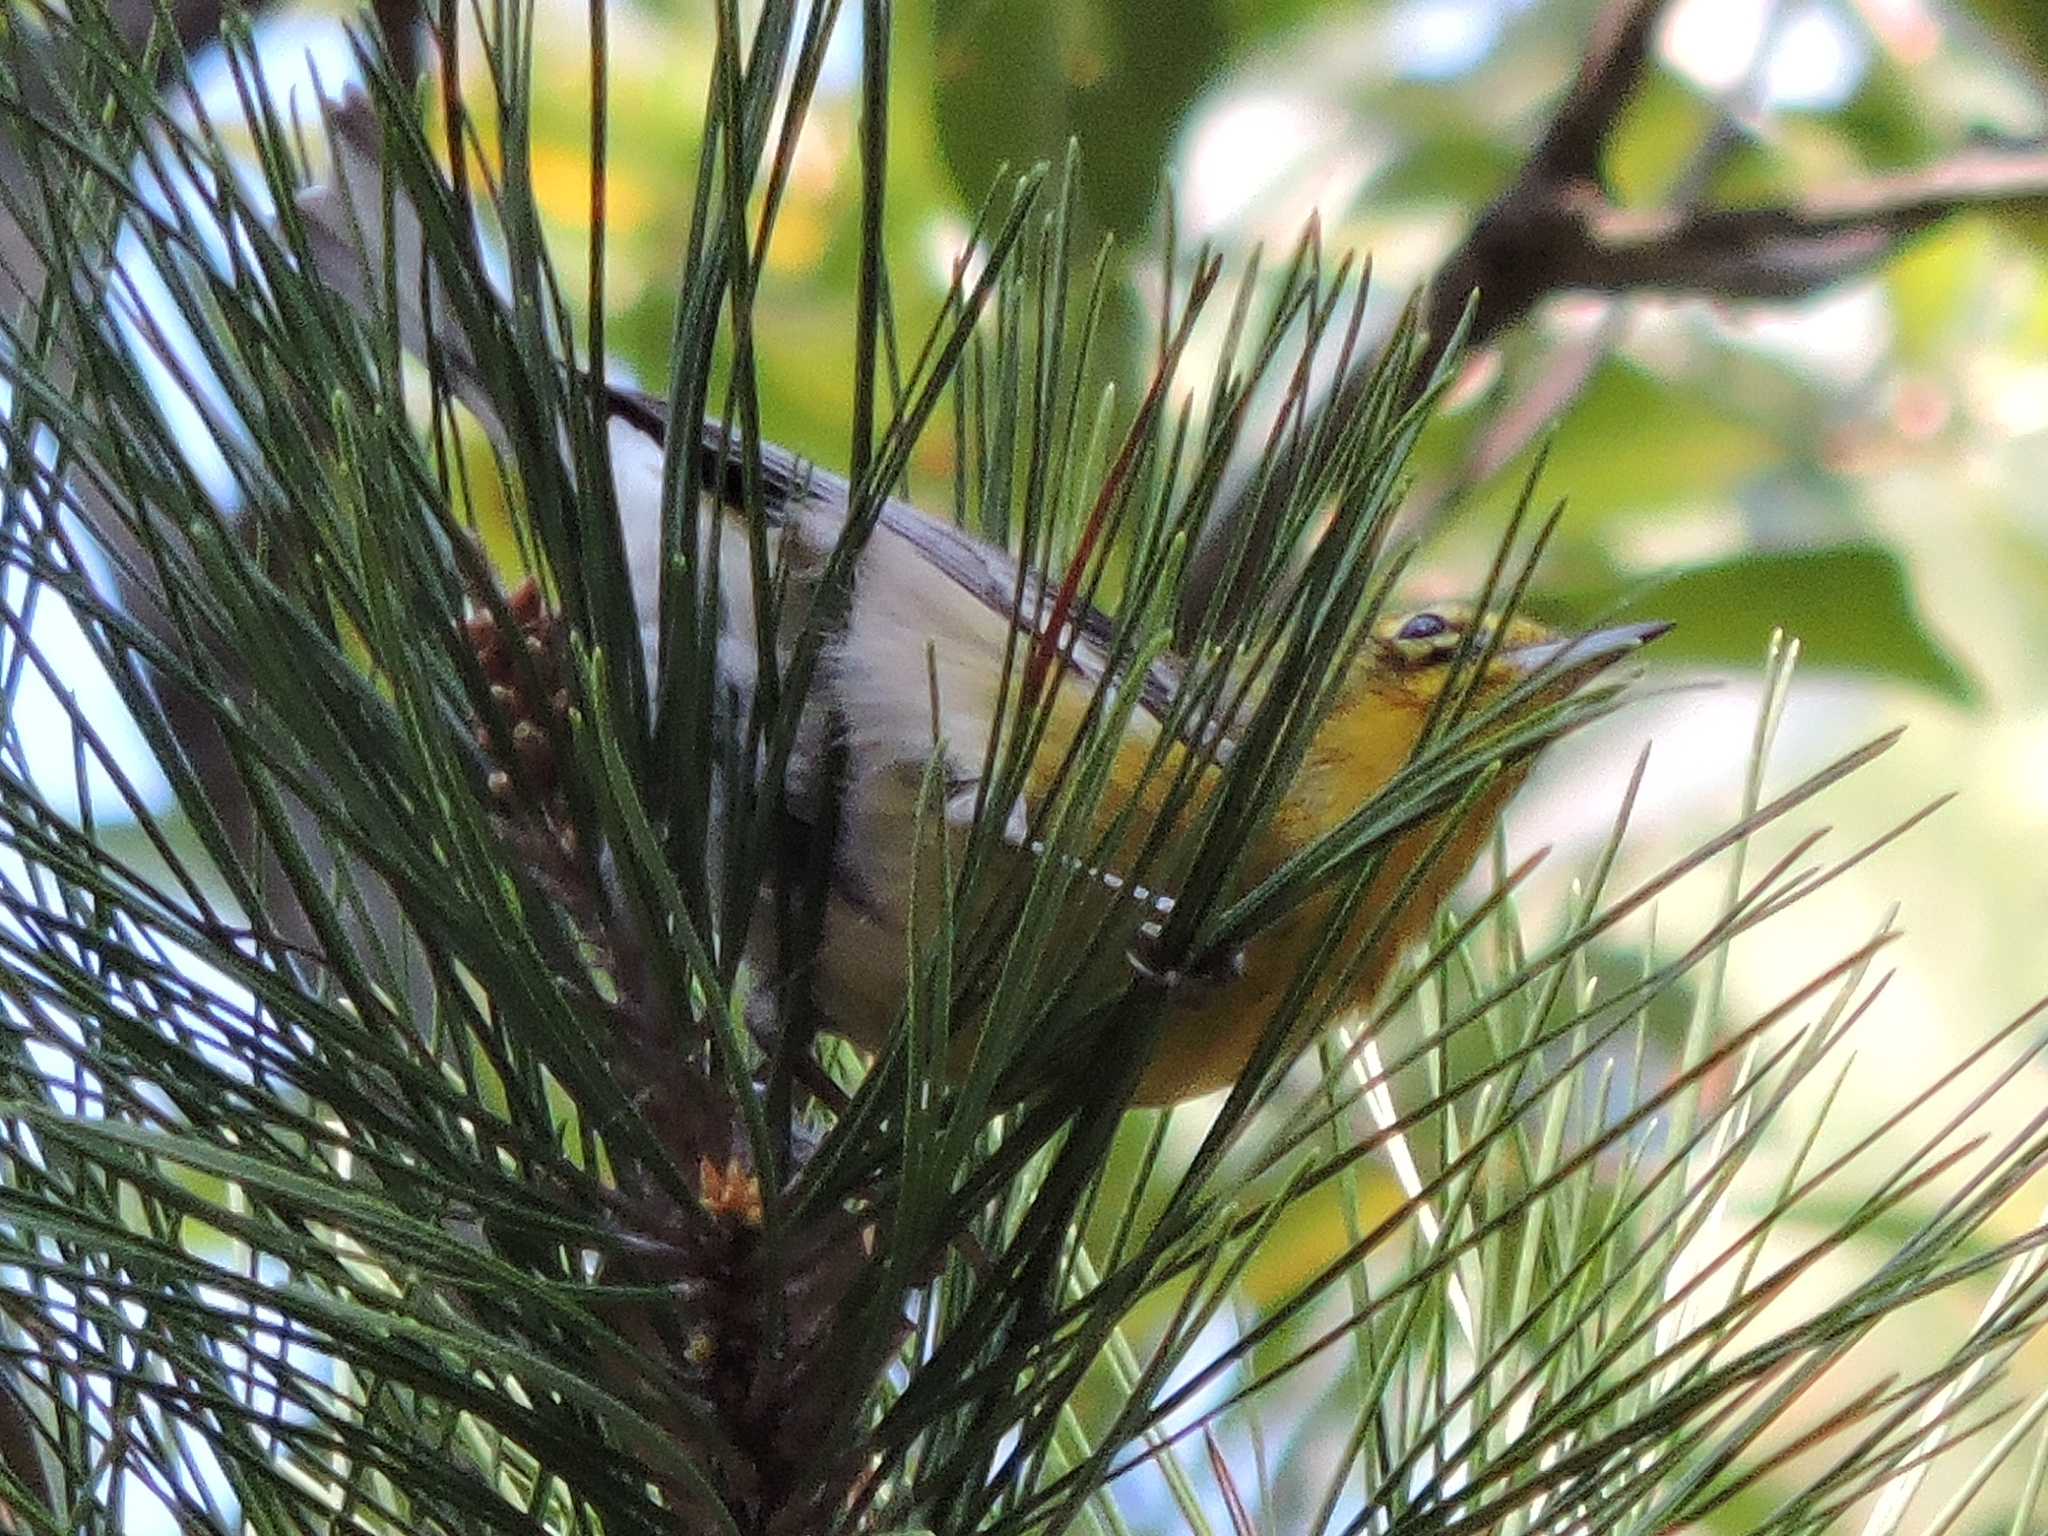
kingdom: Animalia
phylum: Chordata
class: Aves
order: Passeriformes
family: Parulidae
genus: Setophaga
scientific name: Setophaga pinus
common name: Pine warbler
